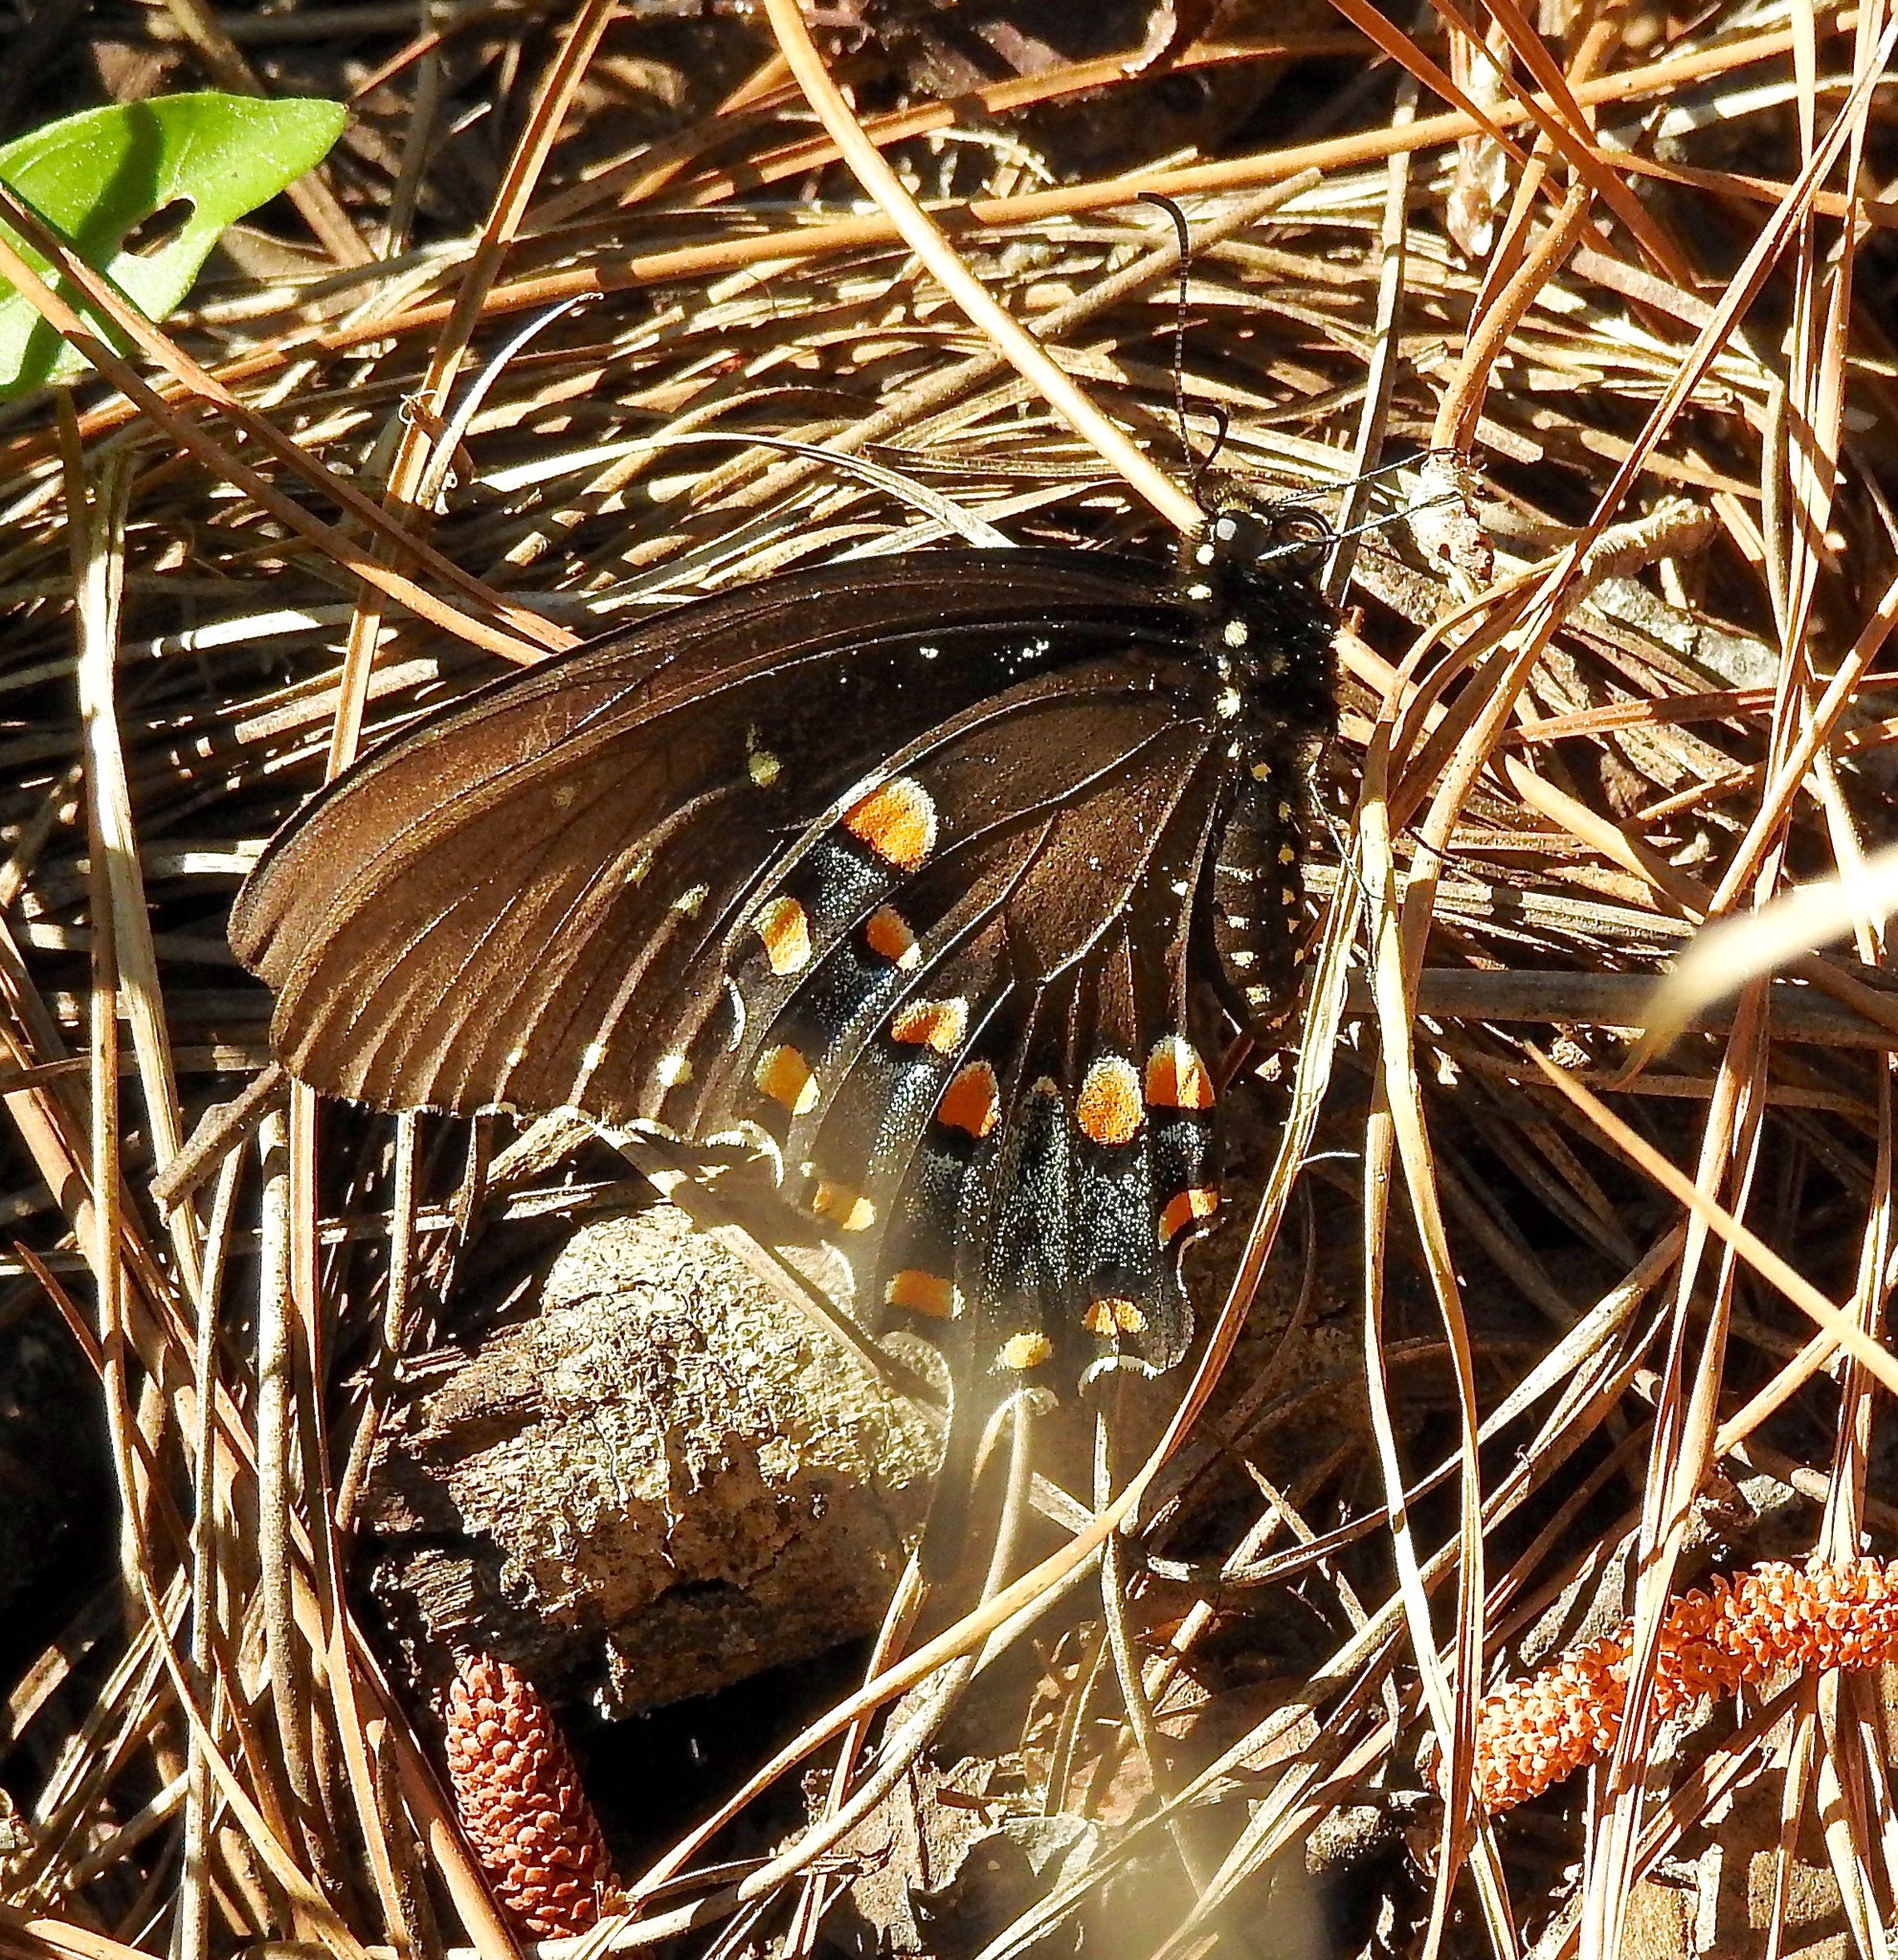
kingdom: Animalia
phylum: Arthropoda
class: Insecta
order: Lepidoptera
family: Papilionidae
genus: Papilio
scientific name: Papilio troilus
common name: Spicebush swallowtail
